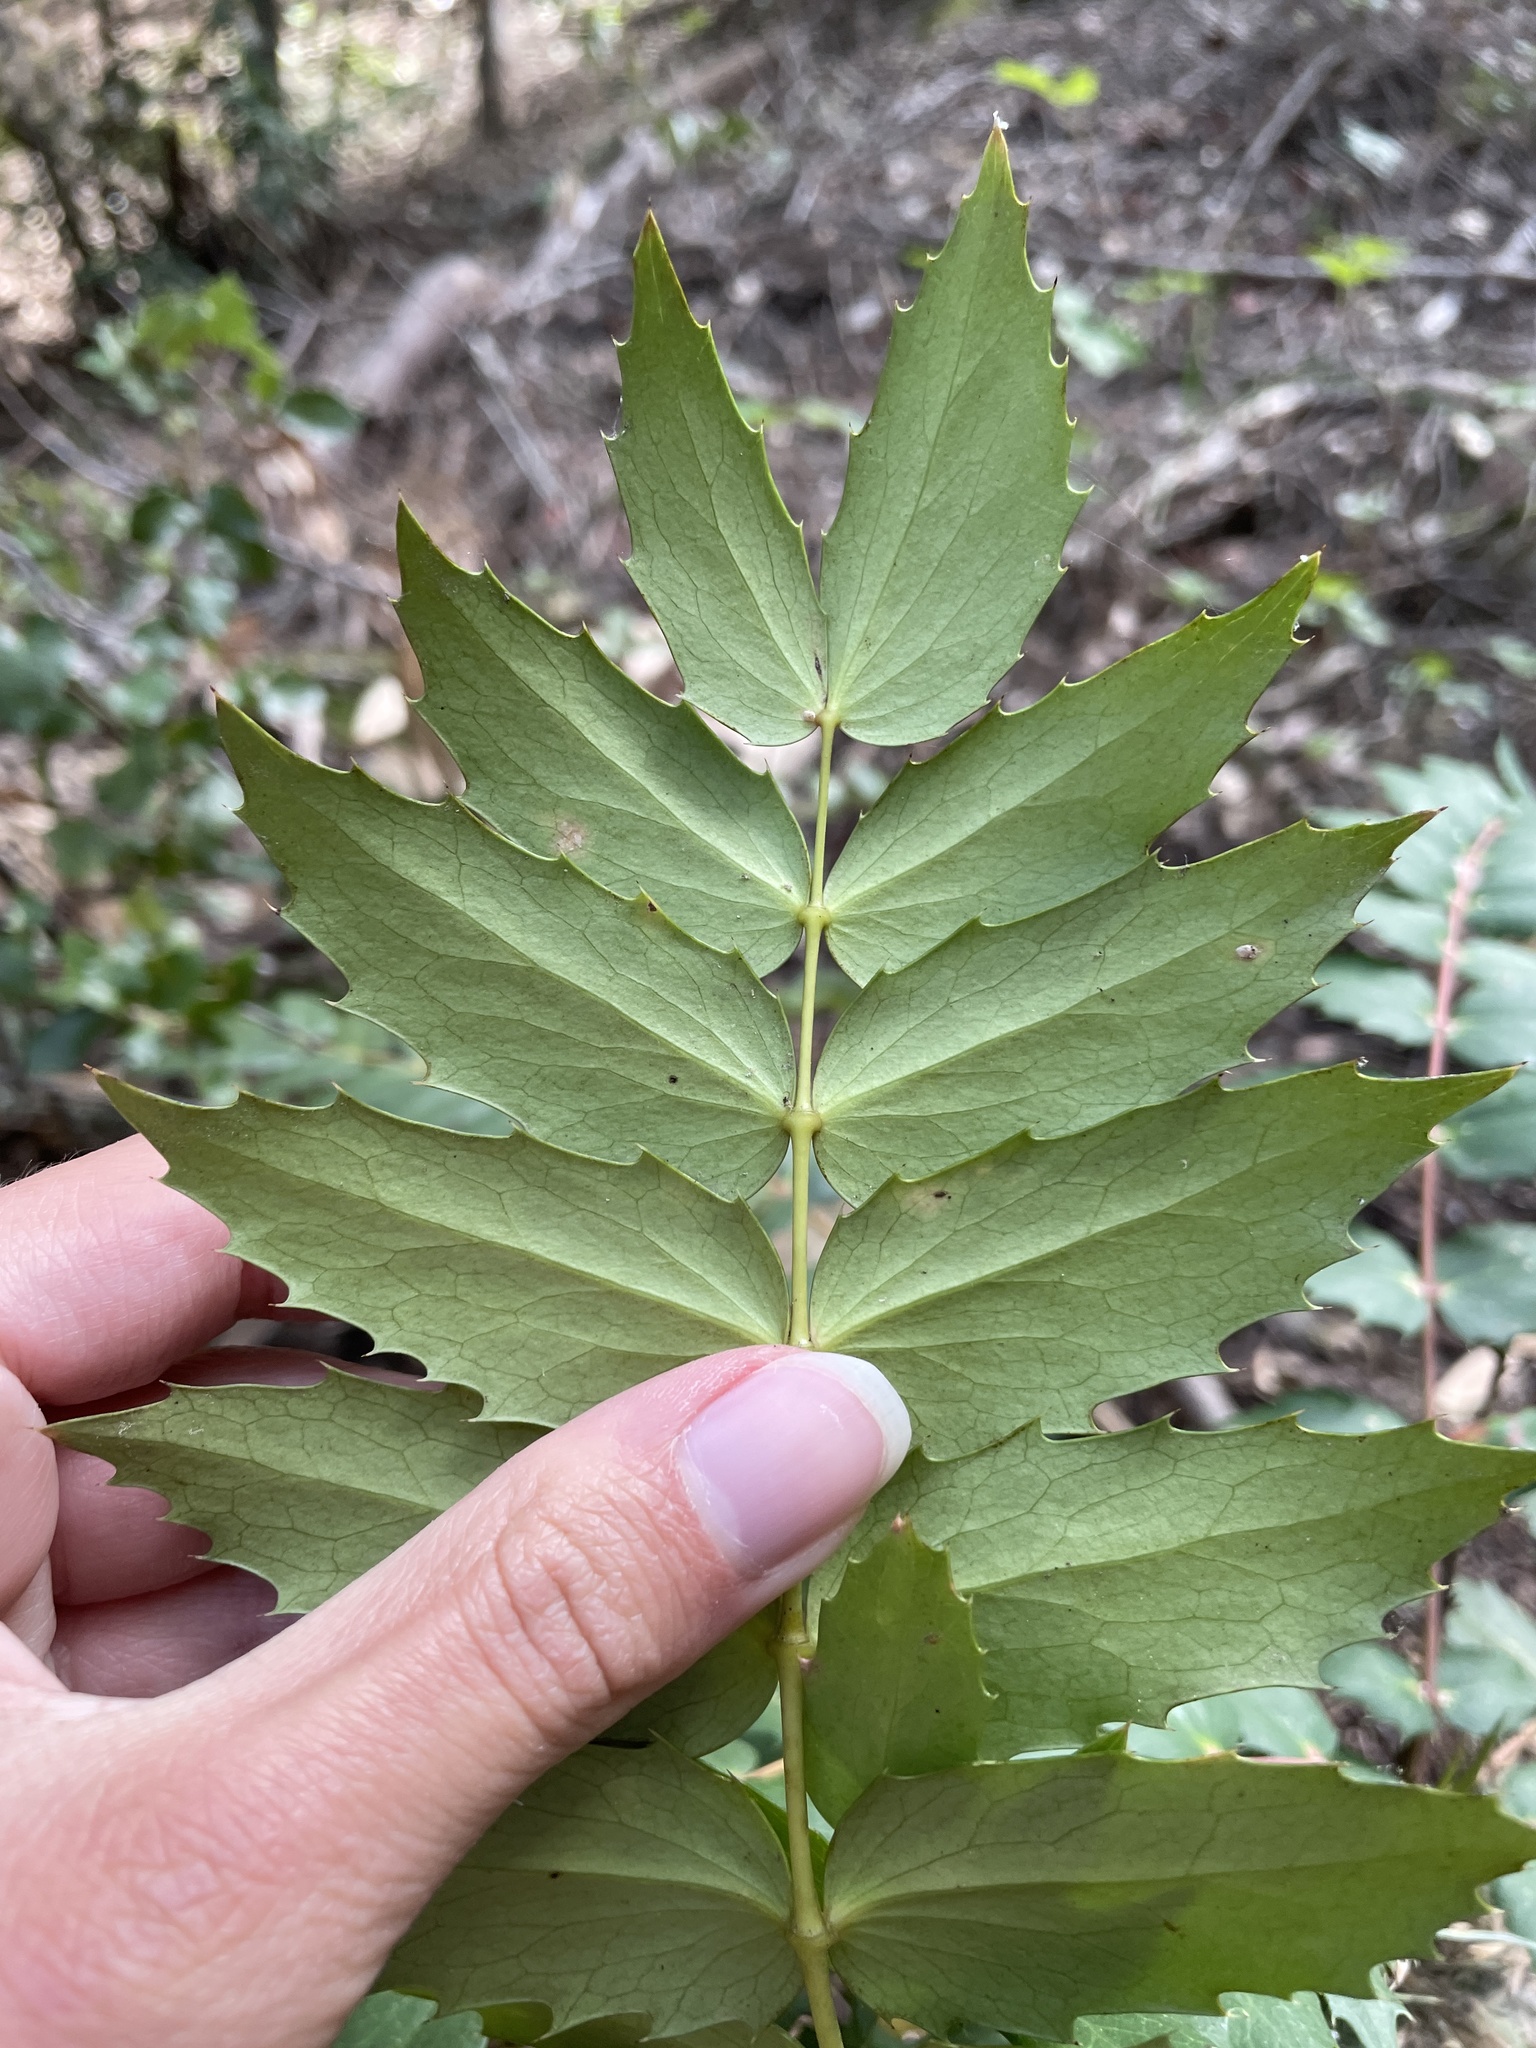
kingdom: Plantae
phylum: Tracheophyta
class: Magnoliopsida
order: Ranunculales
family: Berberidaceae
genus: Mahonia
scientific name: Mahonia nervosa
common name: Cascade oregon-grape
